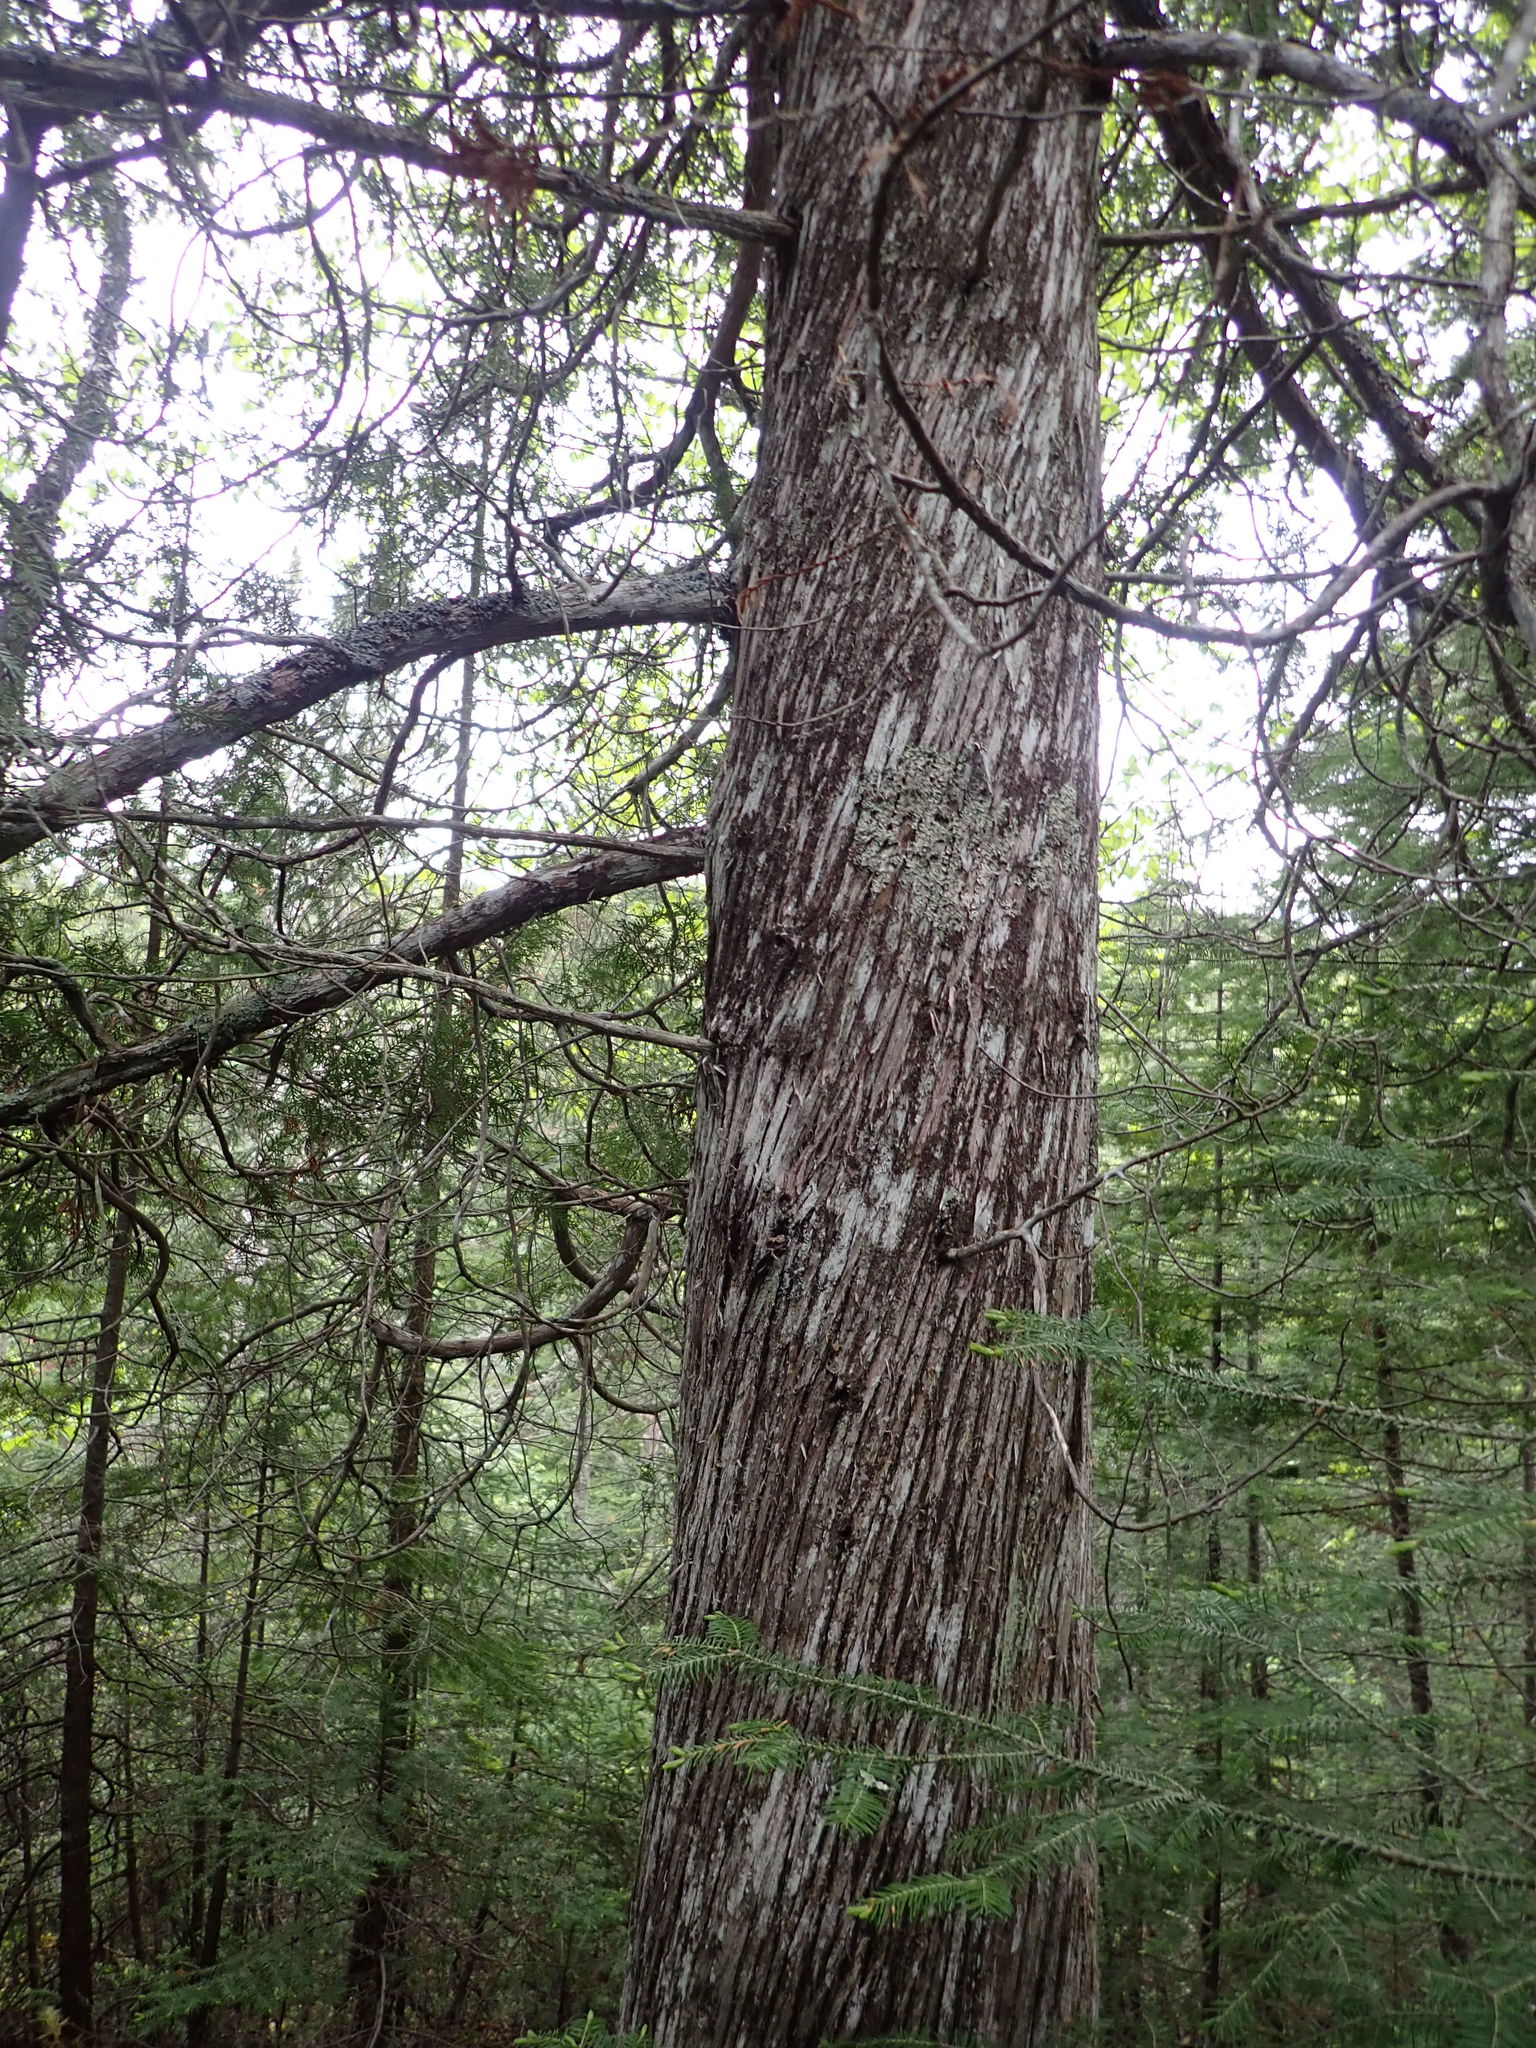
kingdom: Plantae
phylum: Tracheophyta
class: Pinopsida
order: Pinales
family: Cupressaceae
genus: Thuja
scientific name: Thuja occidentalis
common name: Northern white-cedar
